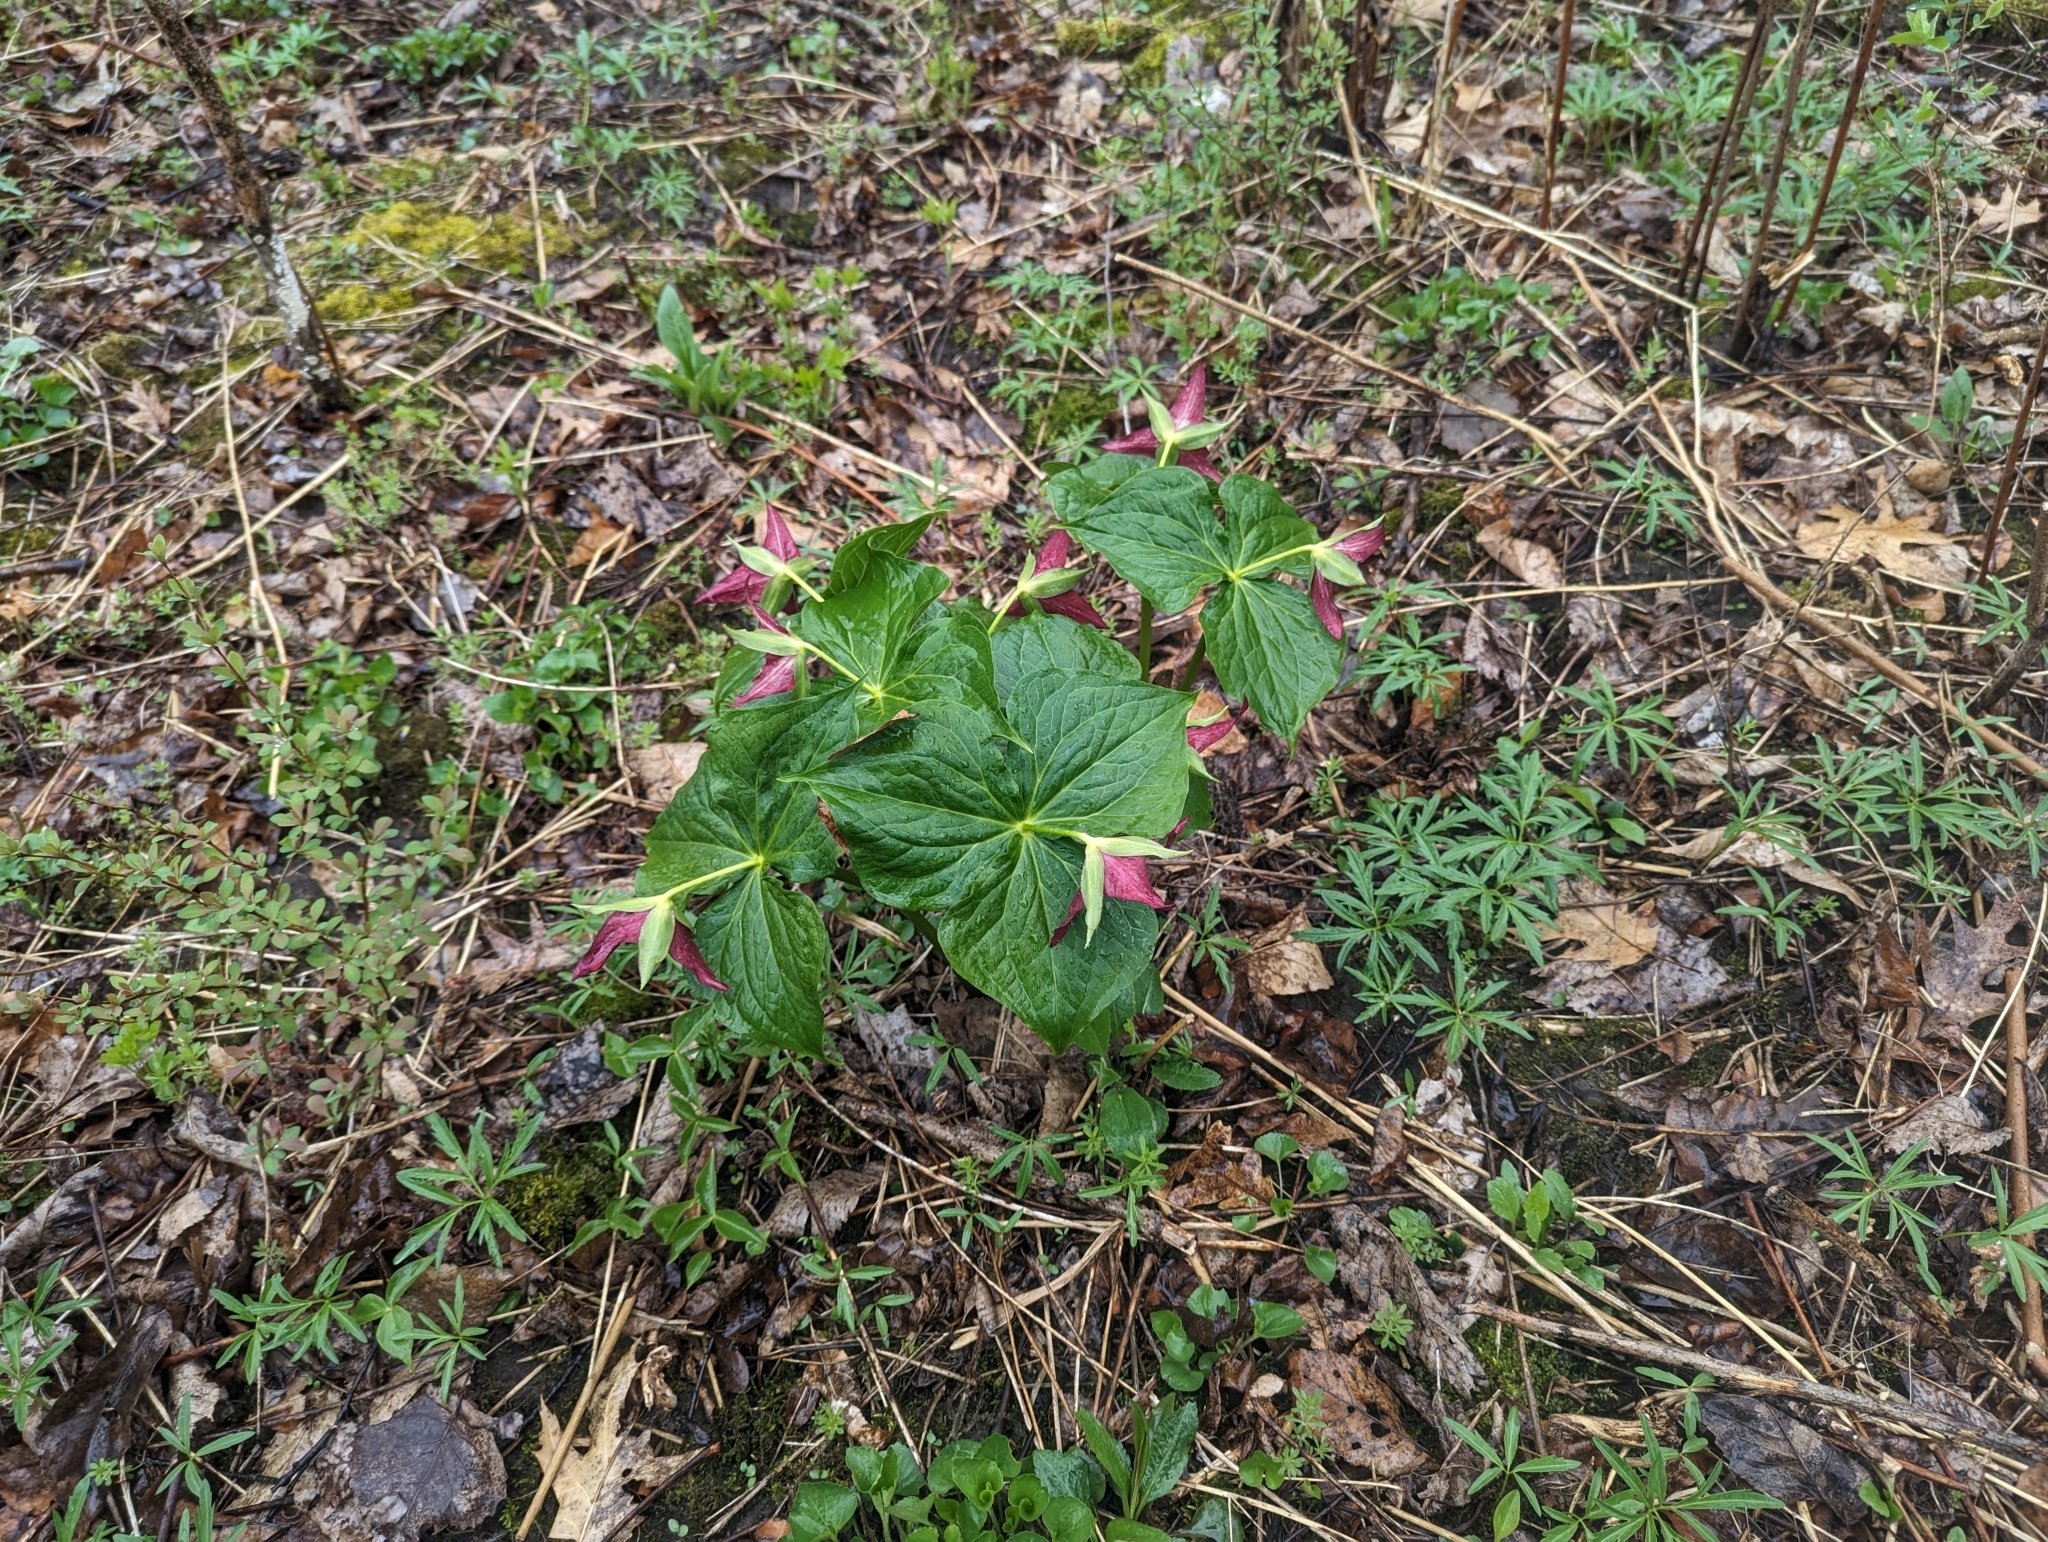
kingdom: Plantae
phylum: Tracheophyta
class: Liliopsida
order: Liliales
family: Melanthiaceae
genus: Trillium
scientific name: Trillium erectum
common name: Purple trillium
